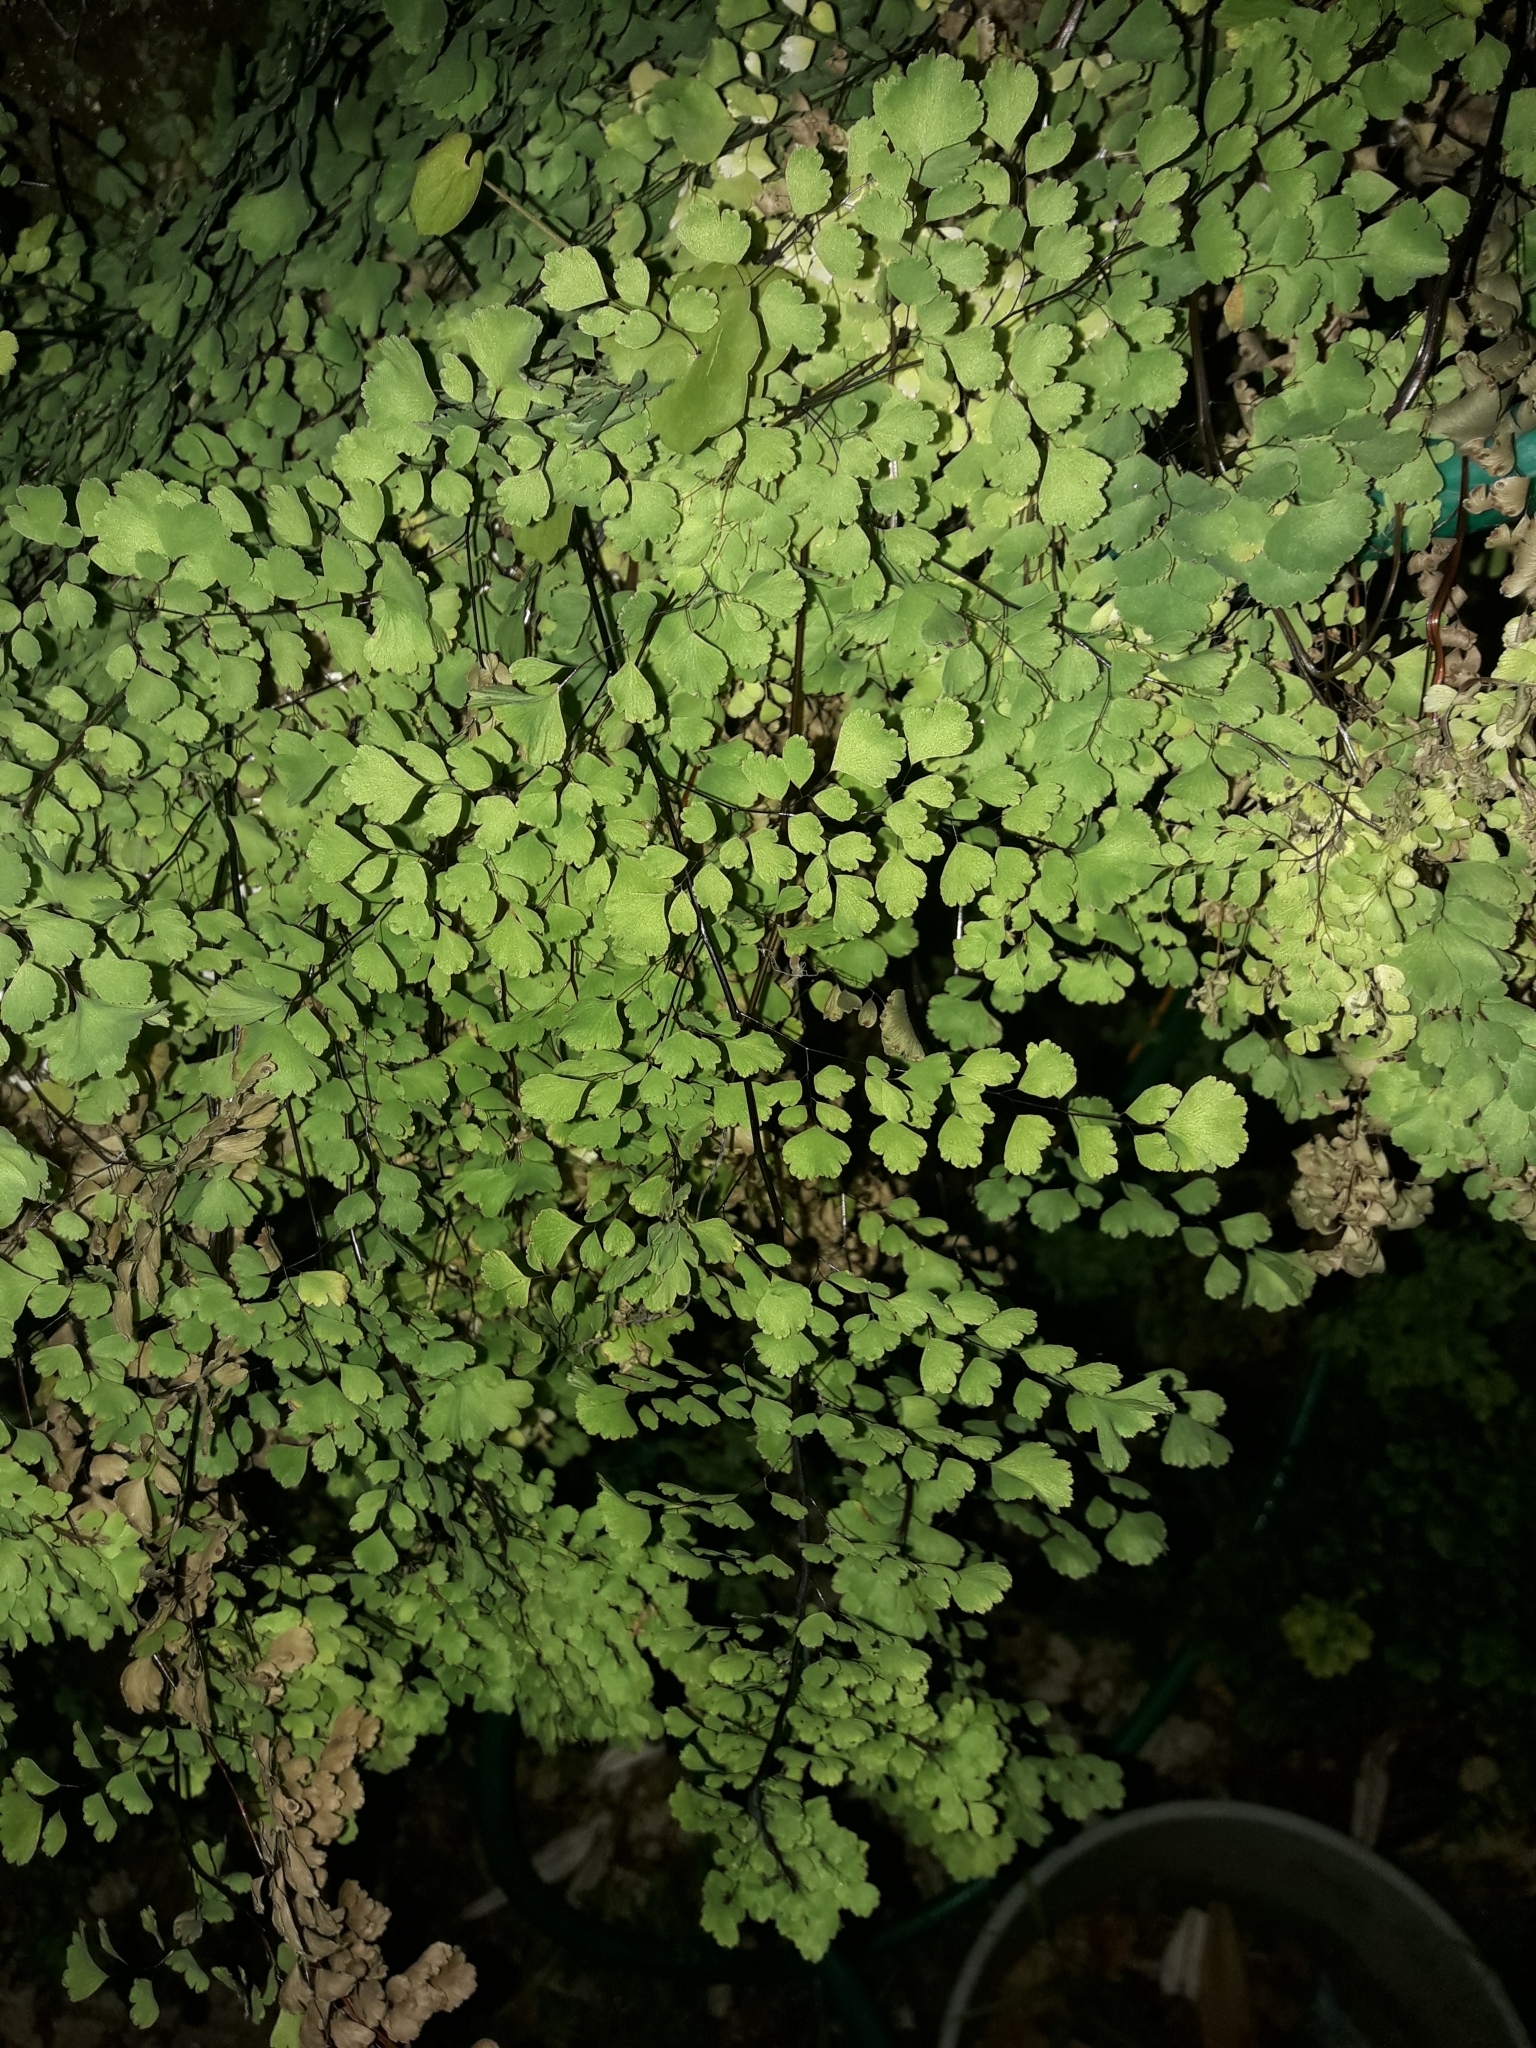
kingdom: Plantae
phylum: Tracheophyta
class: Polypodiopsida
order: Polypodiales
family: Pteridaceae
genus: Adiantum
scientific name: Adiantum raddianum
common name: Delta maidenhair fern
